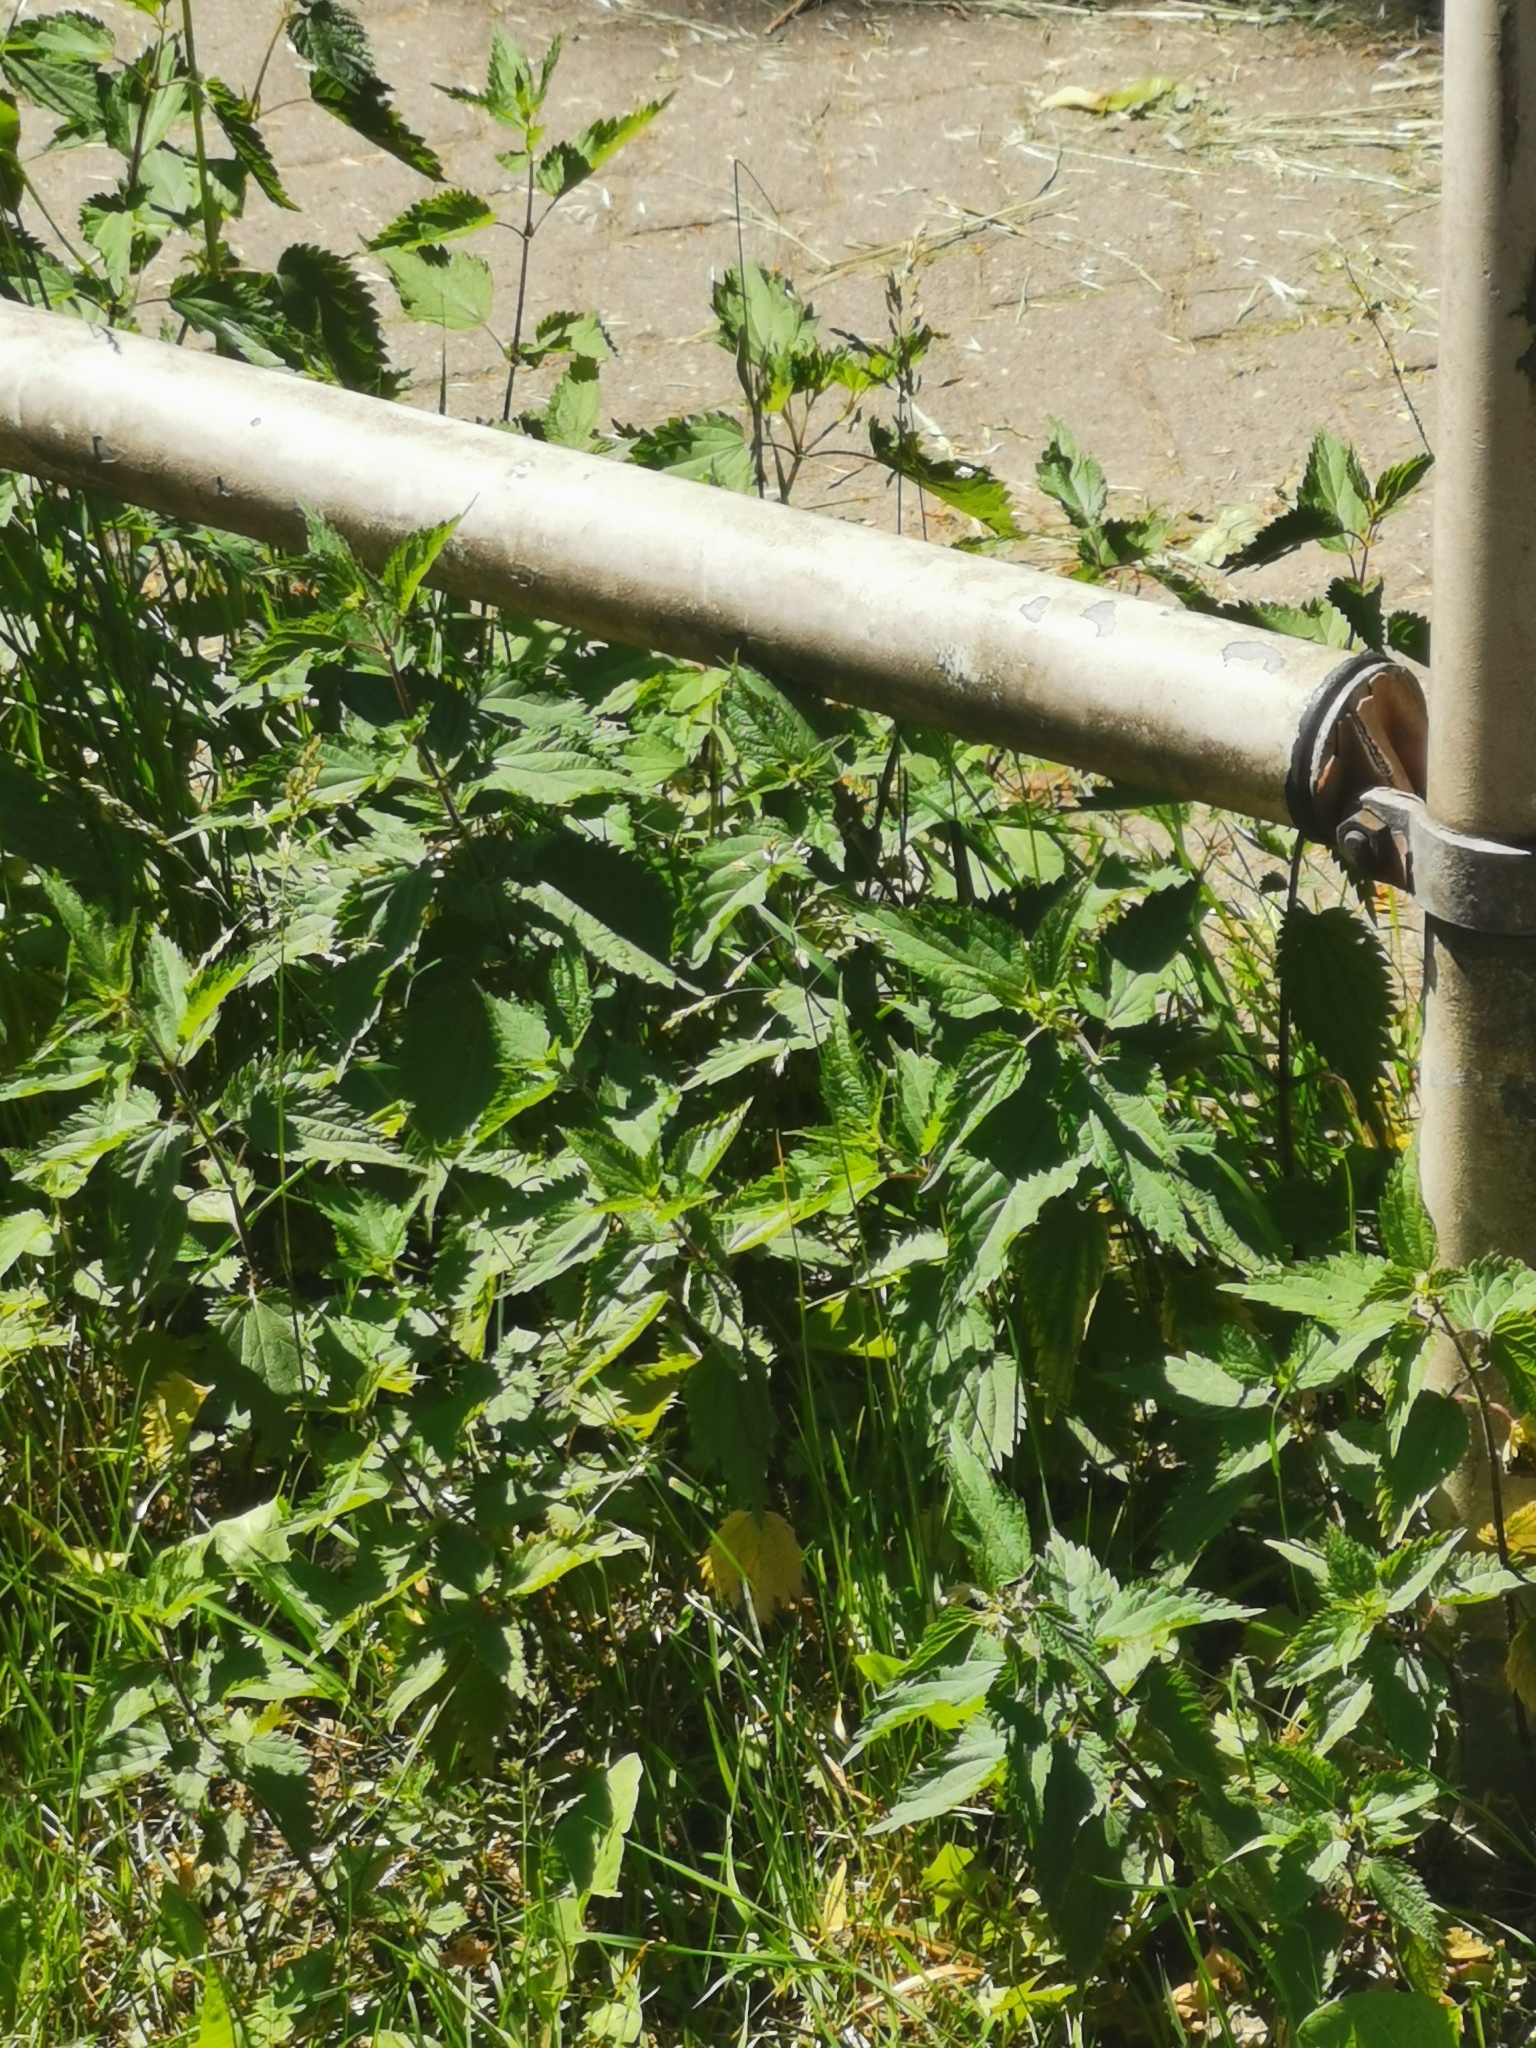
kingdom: Plantae
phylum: Tracheophyta
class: Magnoliopsida
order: Rosales
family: Urticaceae
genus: Urtica
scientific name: Urtica dioica
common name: Common nettle
